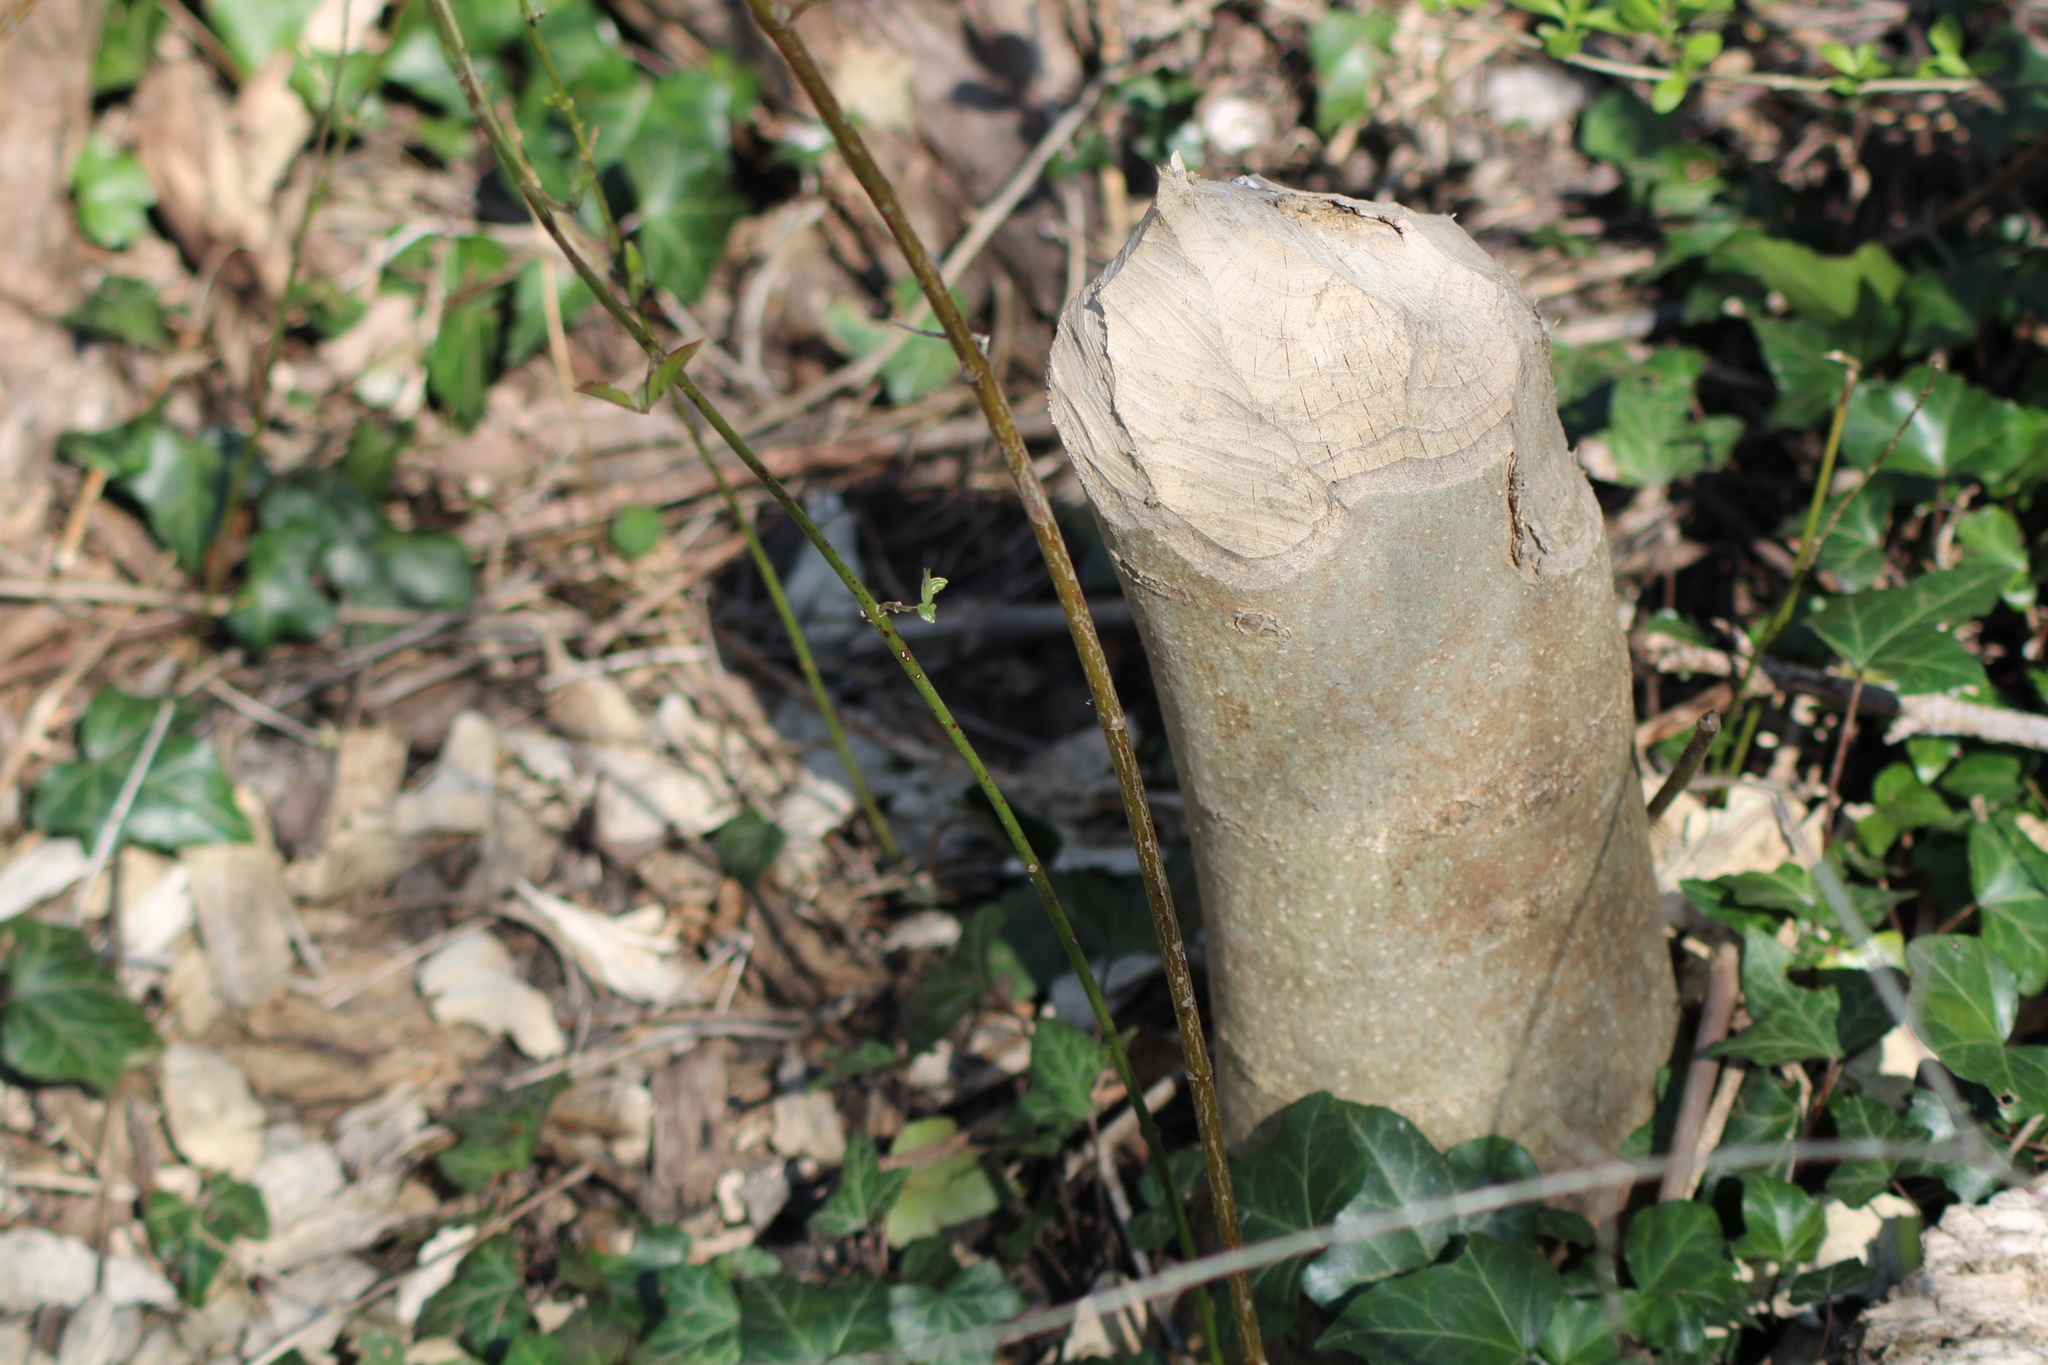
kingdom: Animalia
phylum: Chordata
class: Mammalia
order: Rodentia
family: Castoridae
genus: Castor
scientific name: Castor fiber
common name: Eurasian beaver
